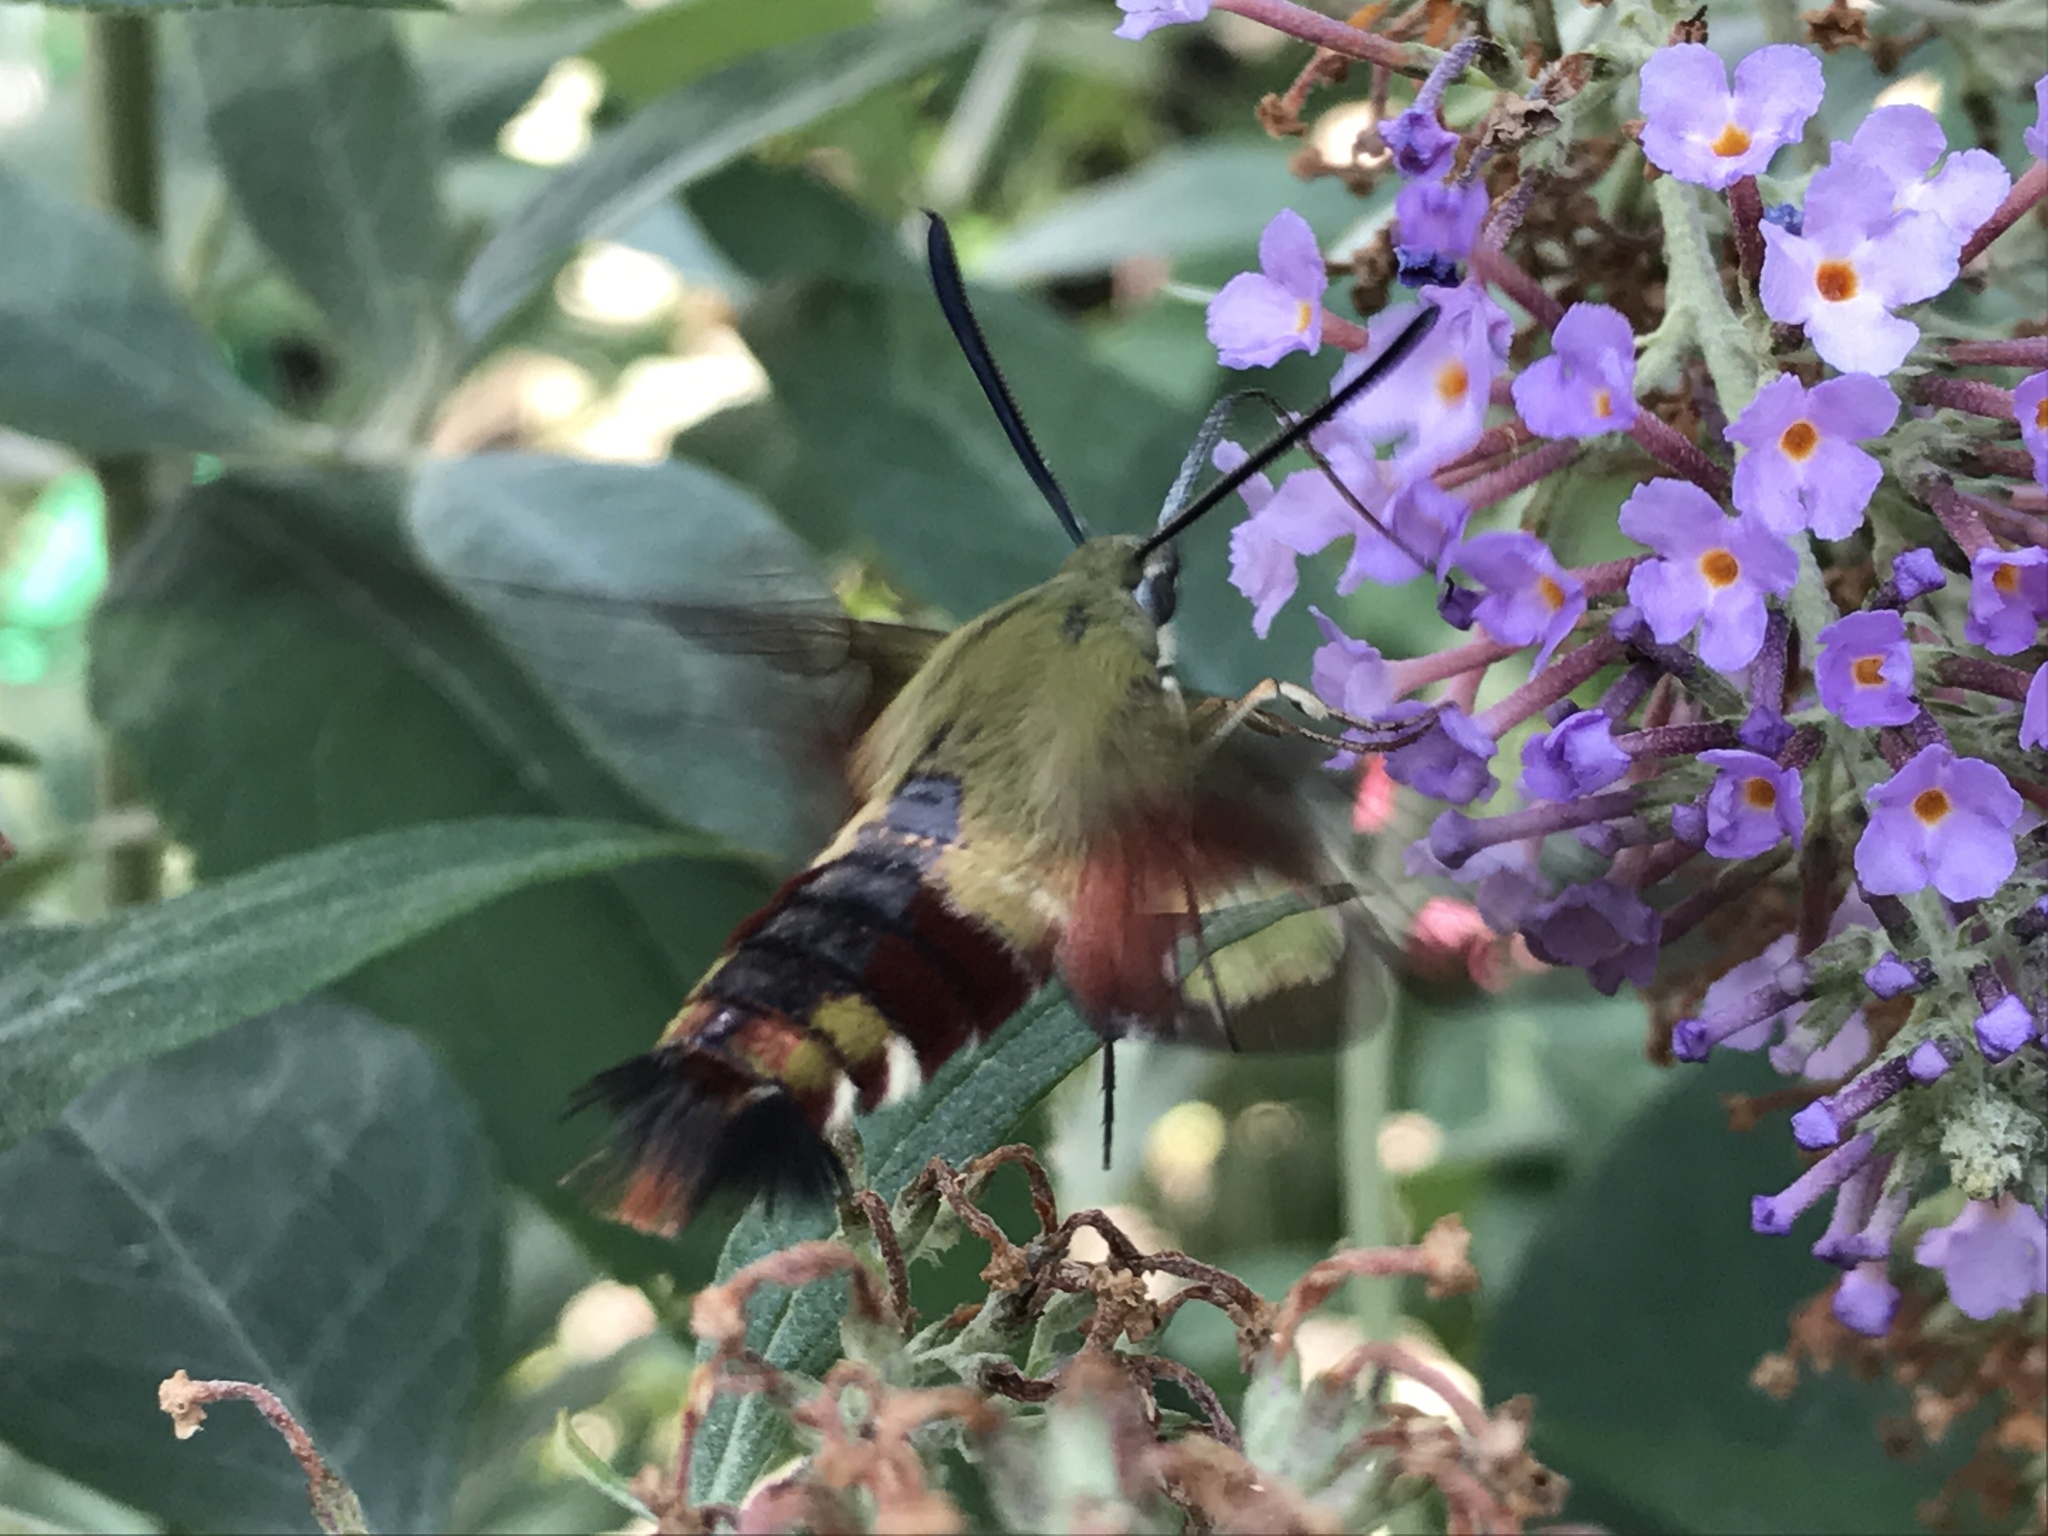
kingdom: Animalia
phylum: Arthropoda
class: Insecta
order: Lepidoptera
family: Sphingidae
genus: Hemaris
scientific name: Hemaris thysbe
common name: Common clear-wing
